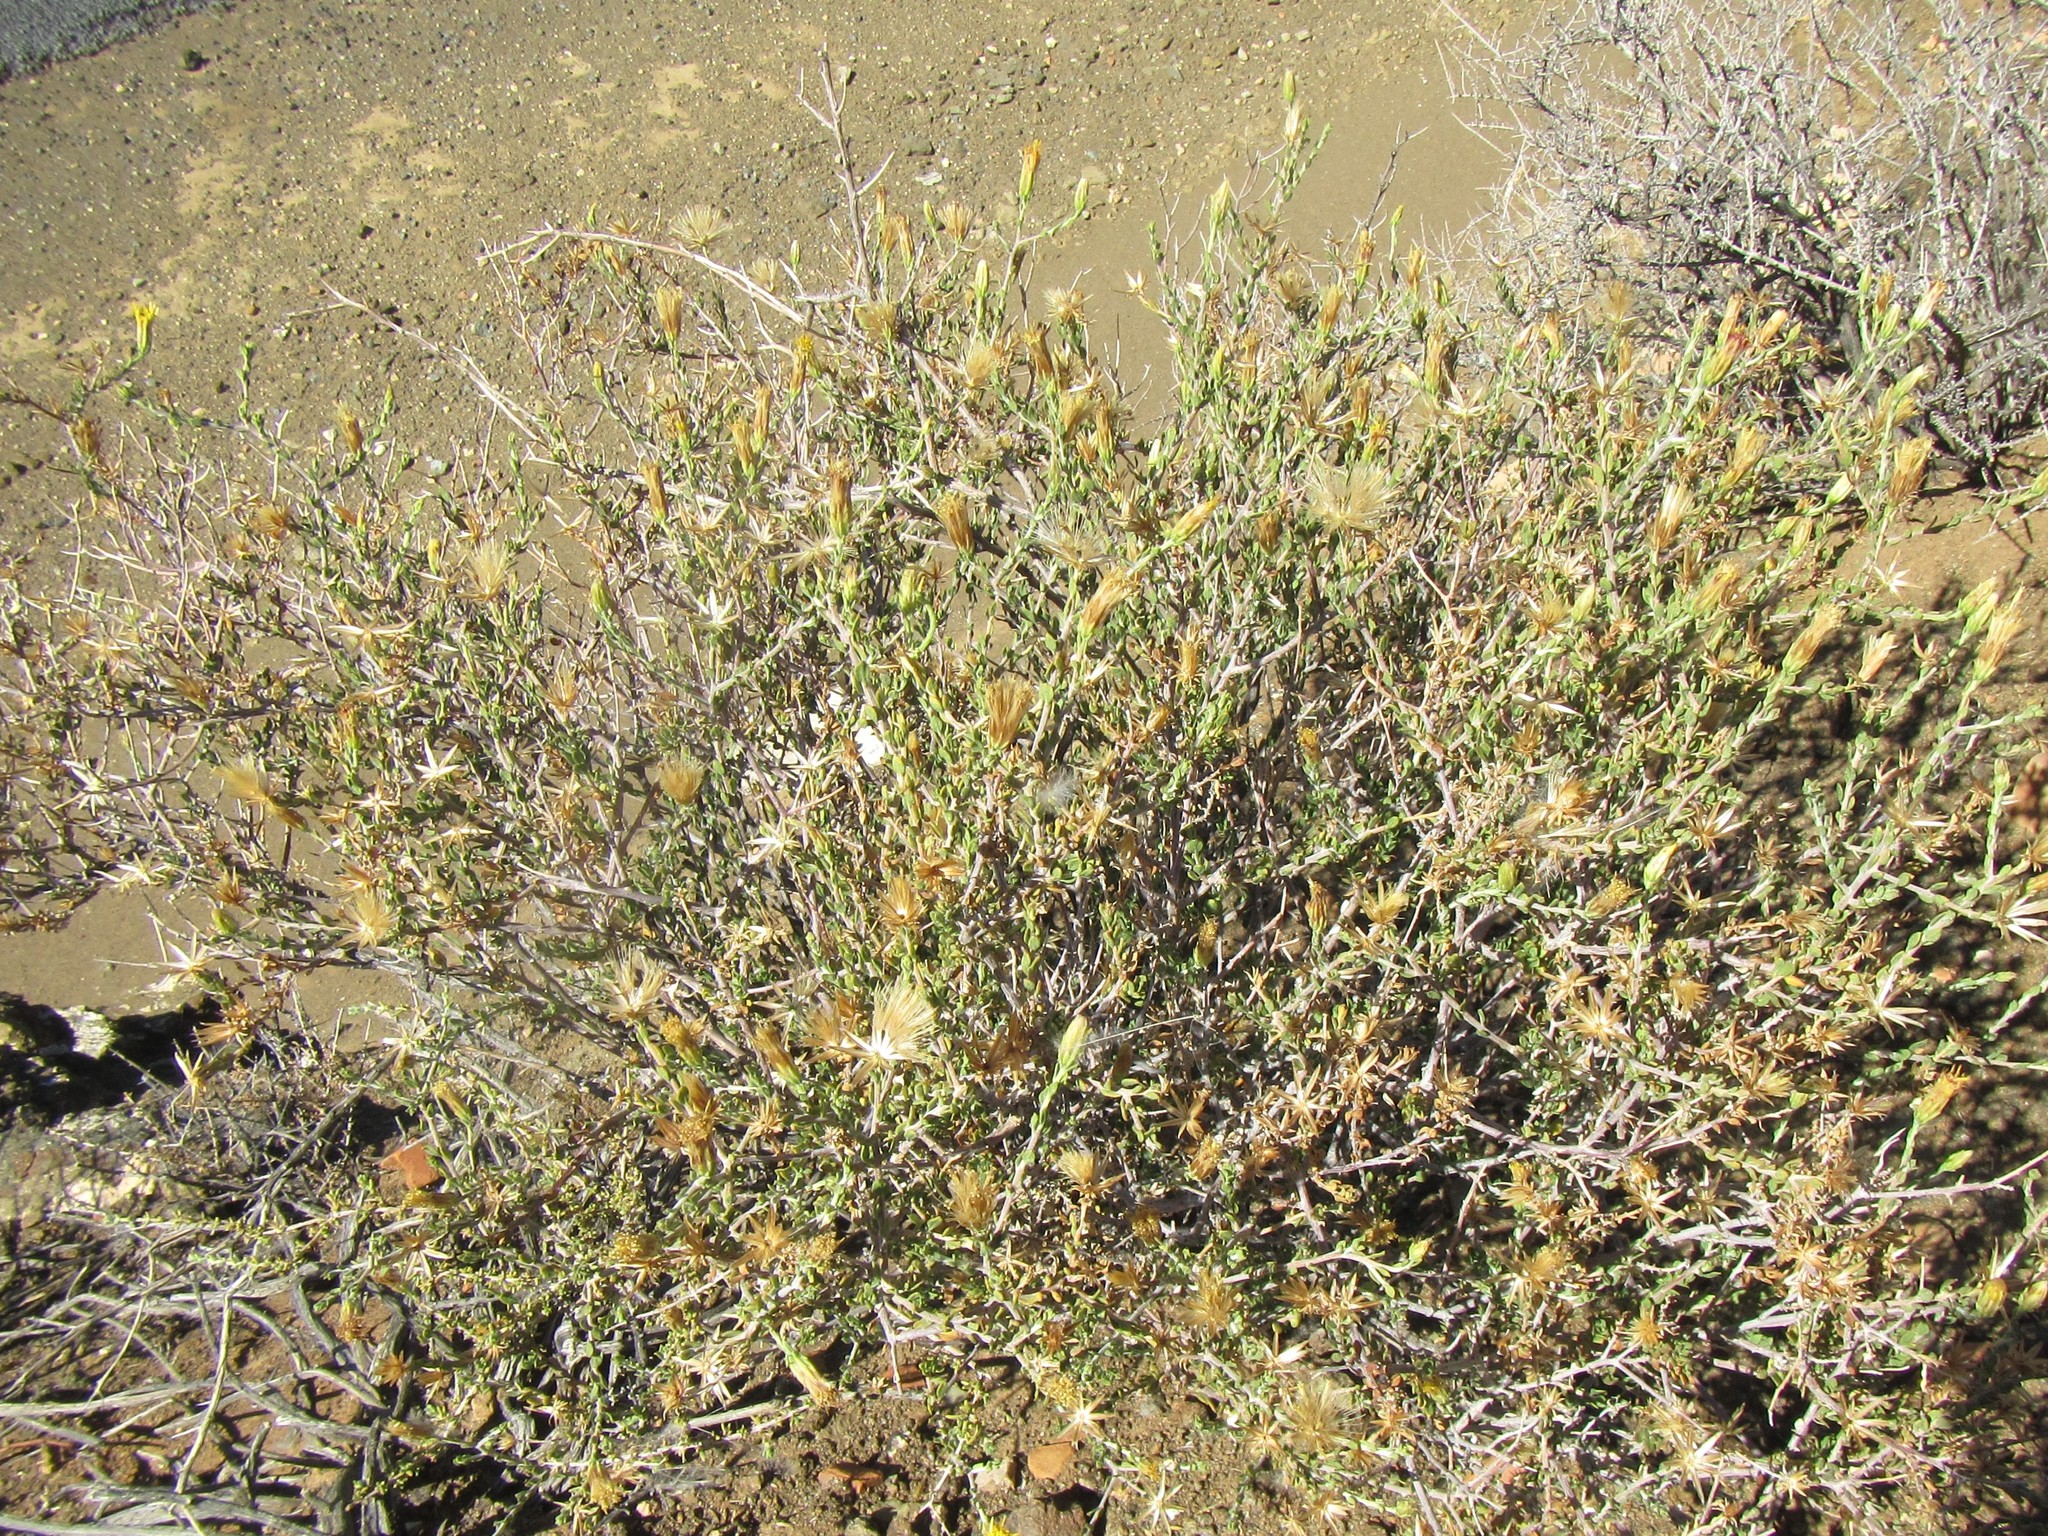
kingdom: Plantae
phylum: Tracheophyta
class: Magnoliopsida
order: Asterales
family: Asteraceae
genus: Pegolettia
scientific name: Pegolettia retrofracta
